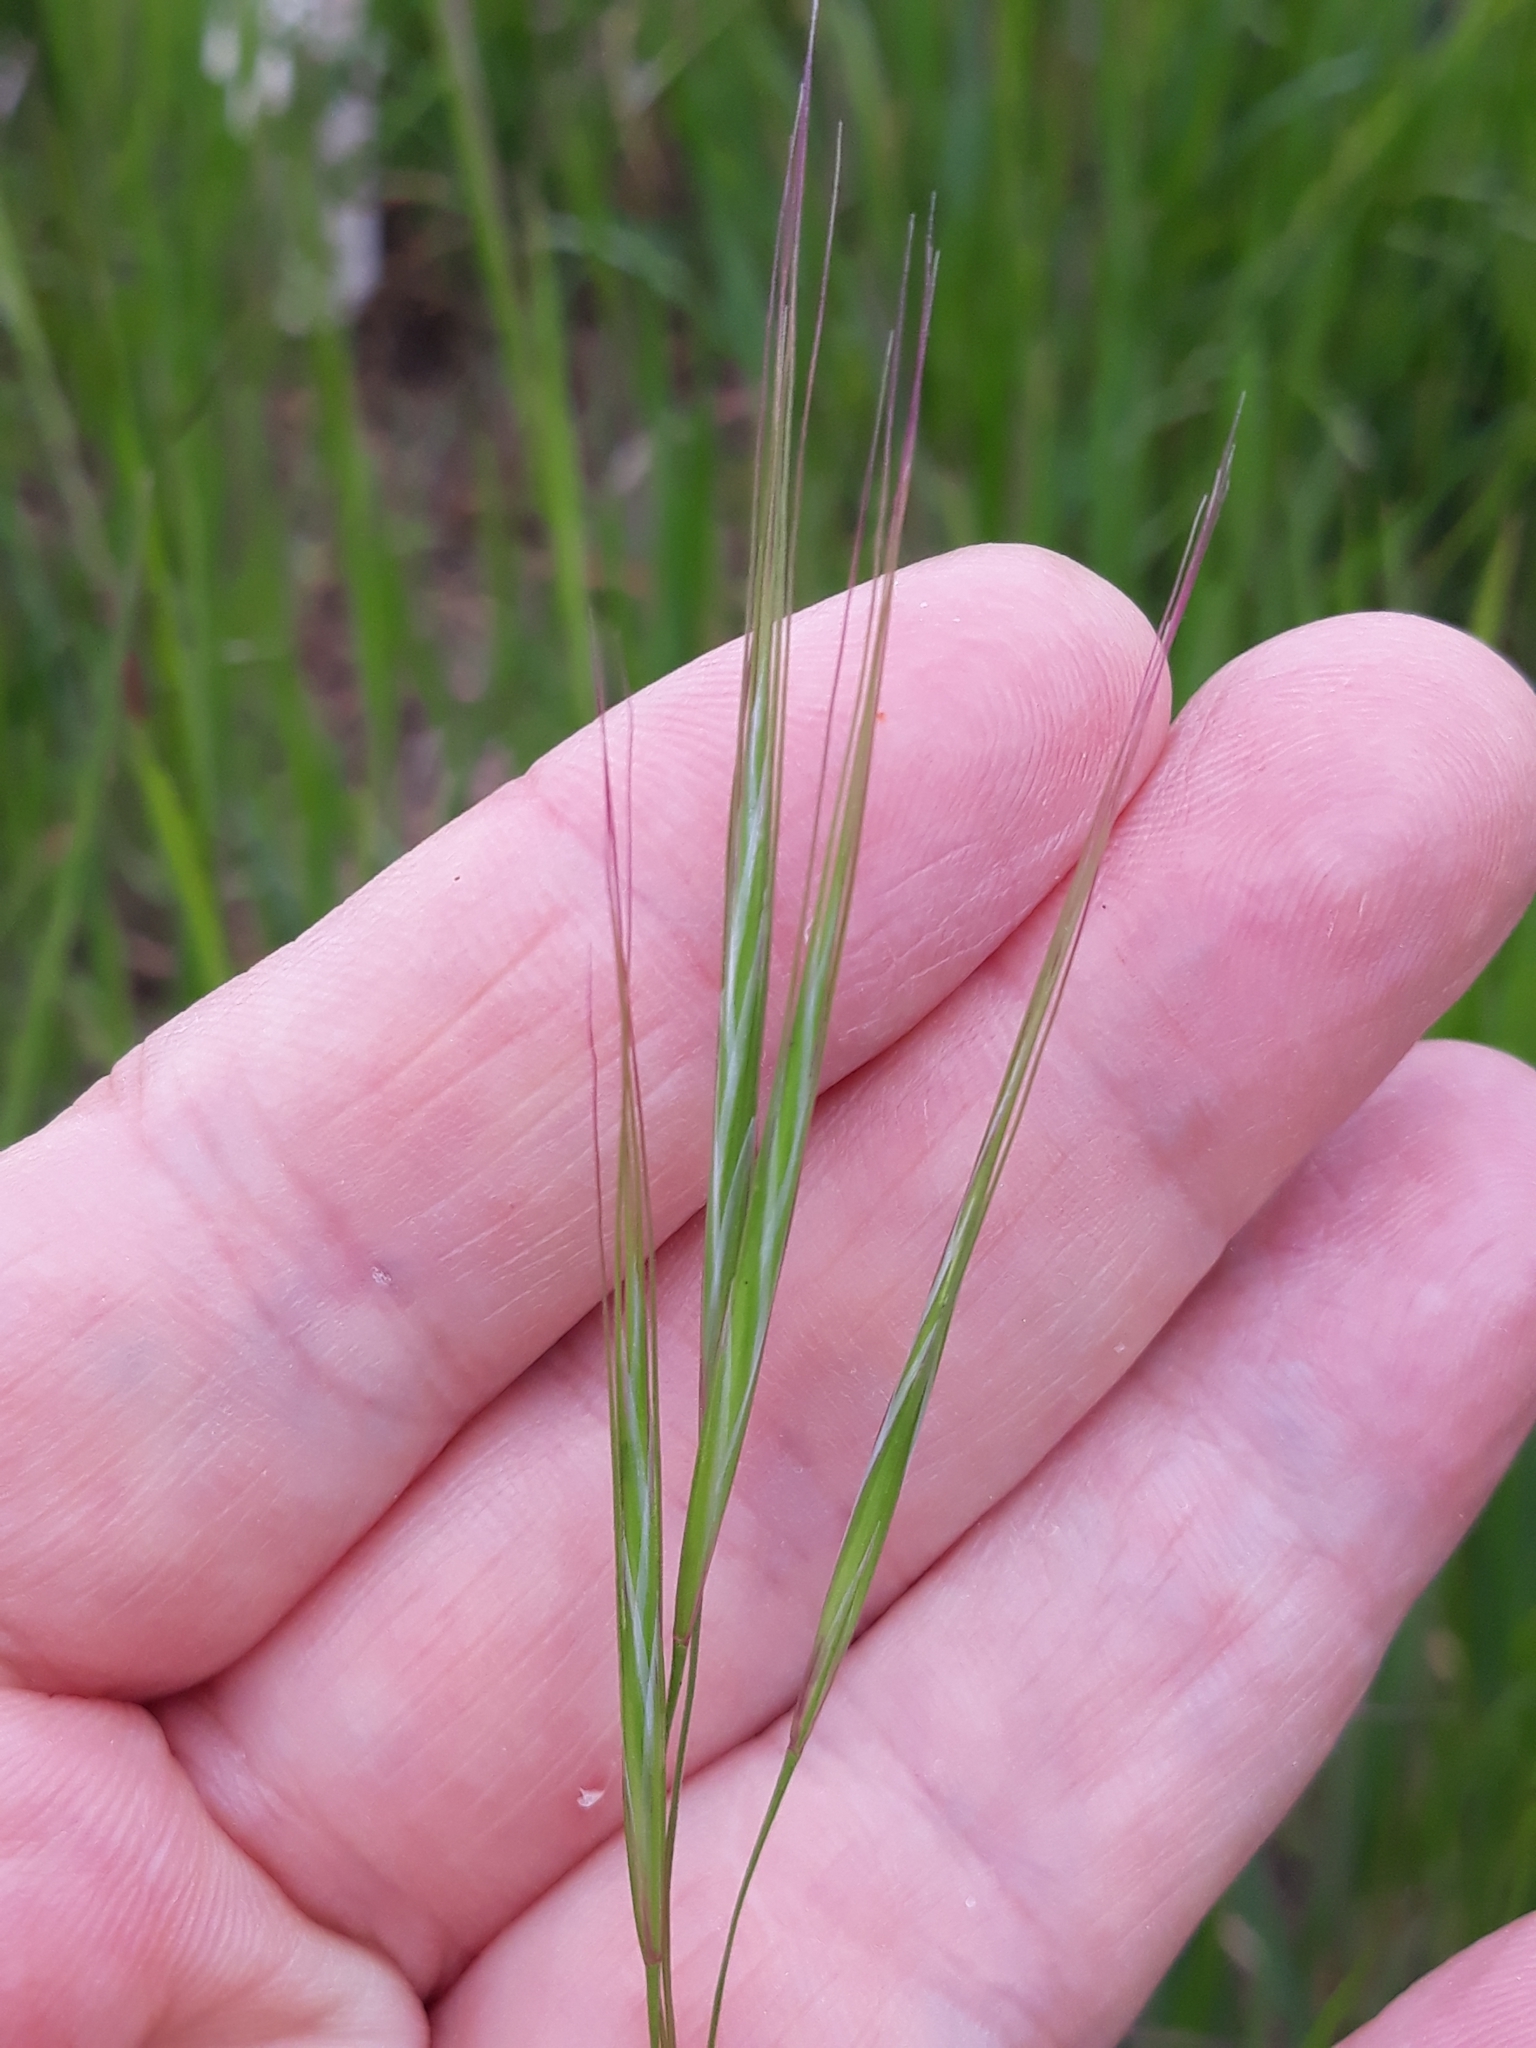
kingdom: Plantae
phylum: Tracheophyta
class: Liliopsida
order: Poales
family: Poaceae
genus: Bromus
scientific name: Bromus sterilis
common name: Poverty brome
